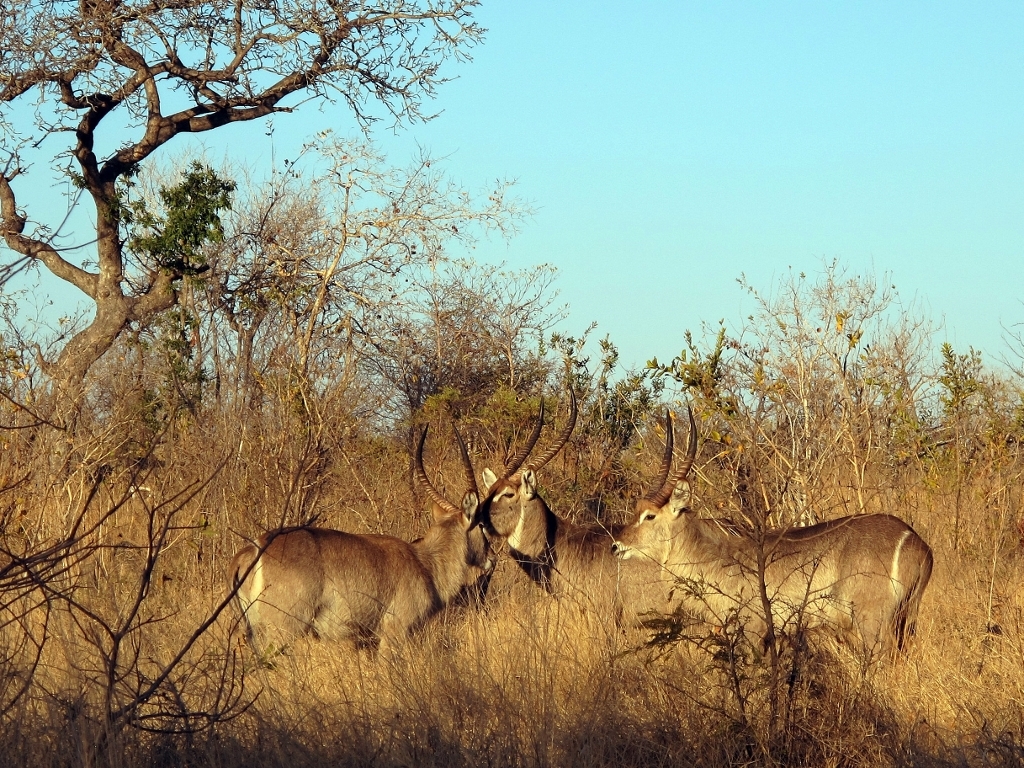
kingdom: Animalia
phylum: Chordata
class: Mammalia
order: Artiodactyla
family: Bovidae
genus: Kobus
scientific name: Kobus ellipsiprymnus
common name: Waterbuck
